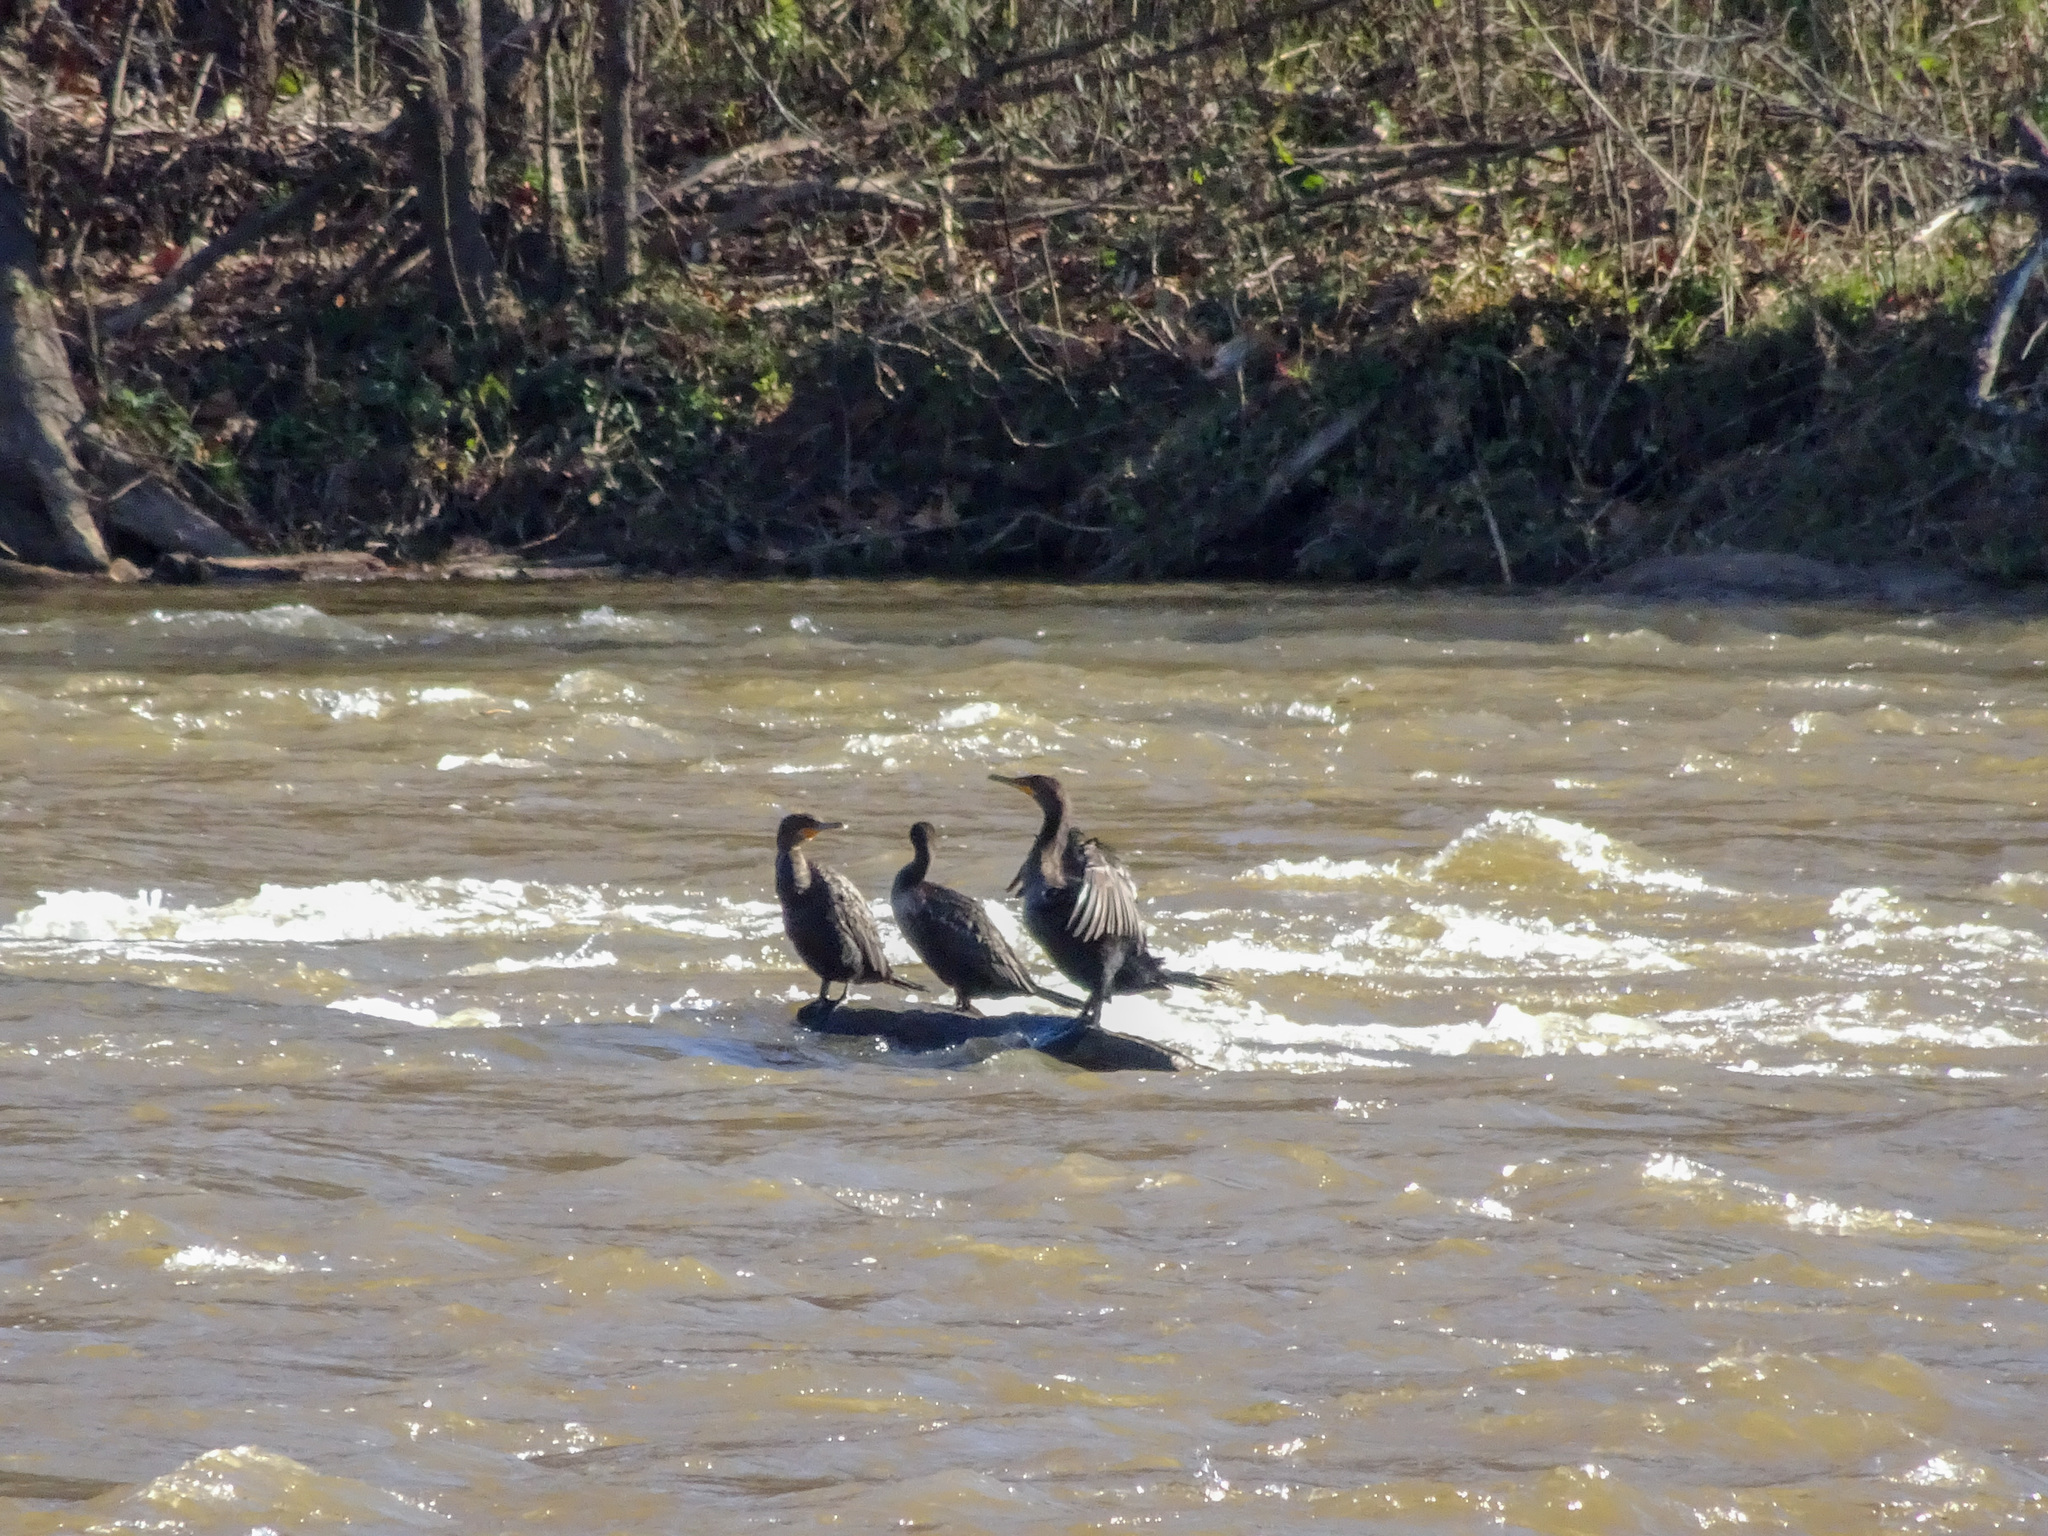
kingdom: Animalia
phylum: Chordata
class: Aves
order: Suliformes
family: Phalacrocoracidae
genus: Phalacrocorax
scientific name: Phalacrocorax auritus
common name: Double-crested cormorant
